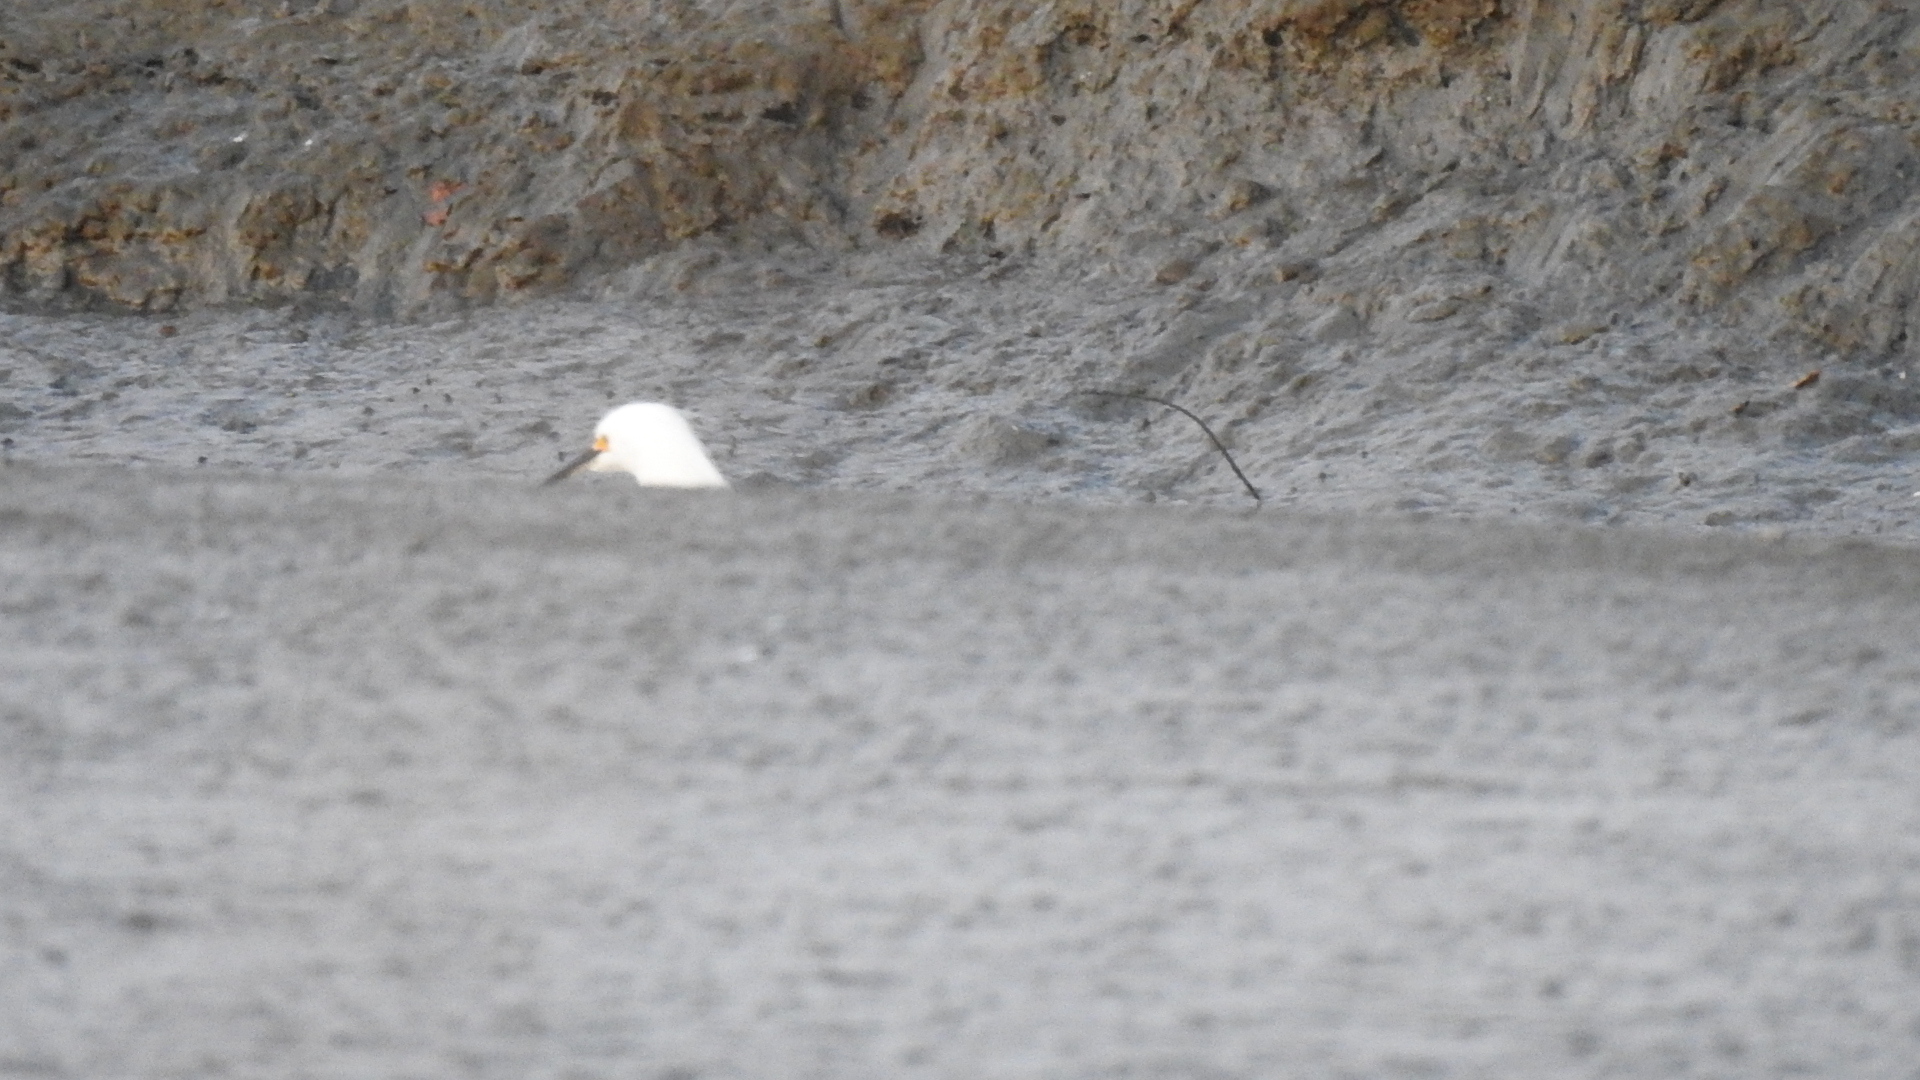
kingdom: Animalia
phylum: Chordata
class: Aves
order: Pelecaniformes
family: Ardeidae
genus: Egretta
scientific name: Egretta thula
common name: Snowy egret
